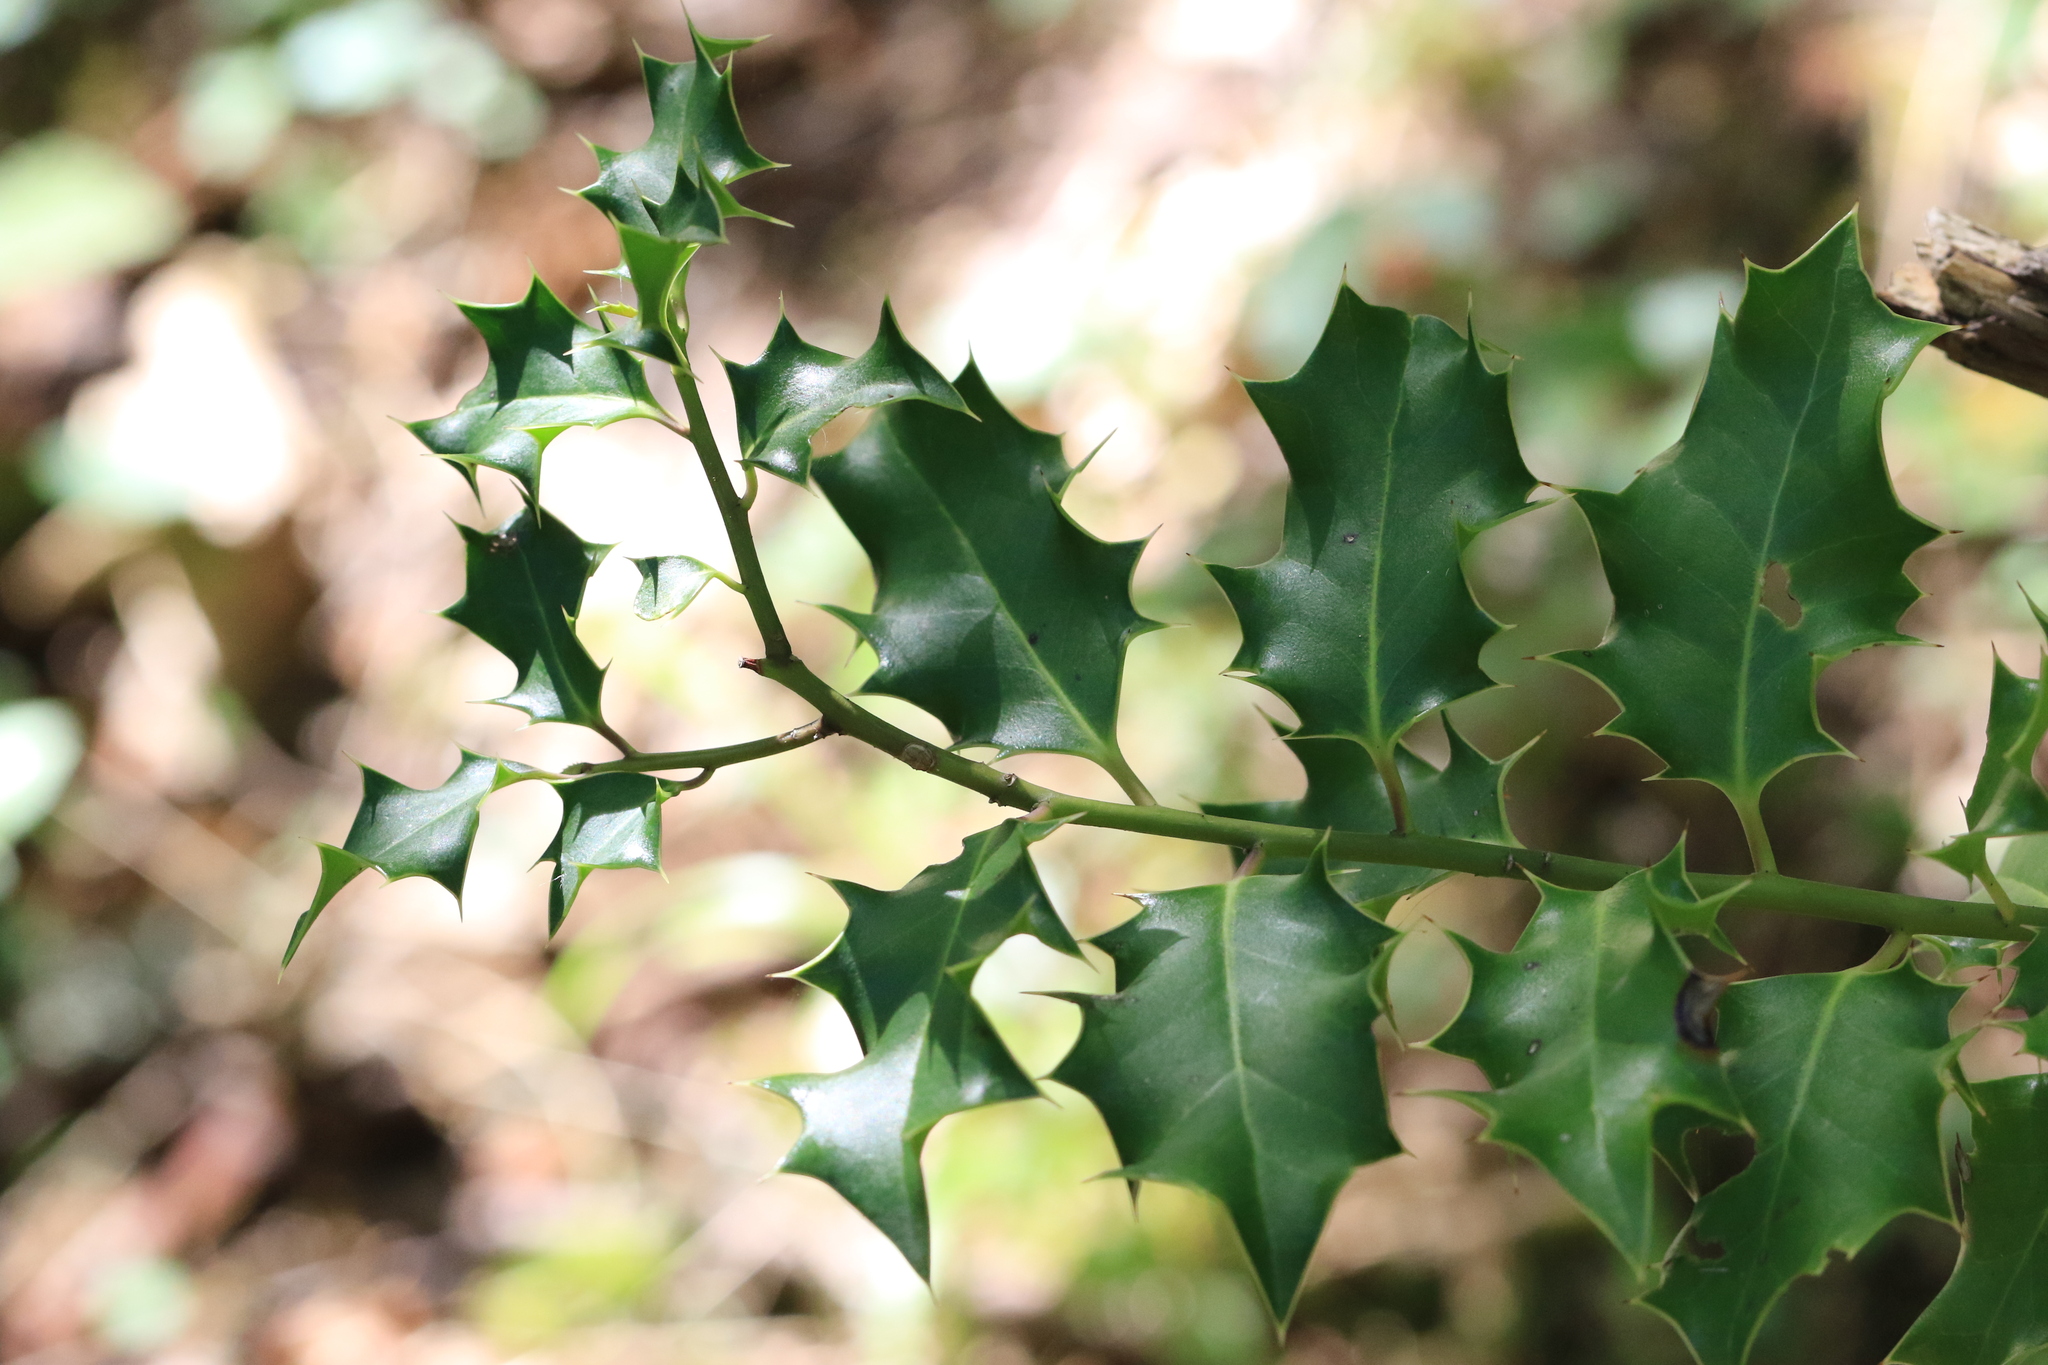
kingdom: Plantae
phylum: Tracheophyta
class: Magnoliopsida
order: Aquifoliales
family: Aquifoliaceae
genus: Ilex
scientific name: Ilex aquifolium
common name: English holly
